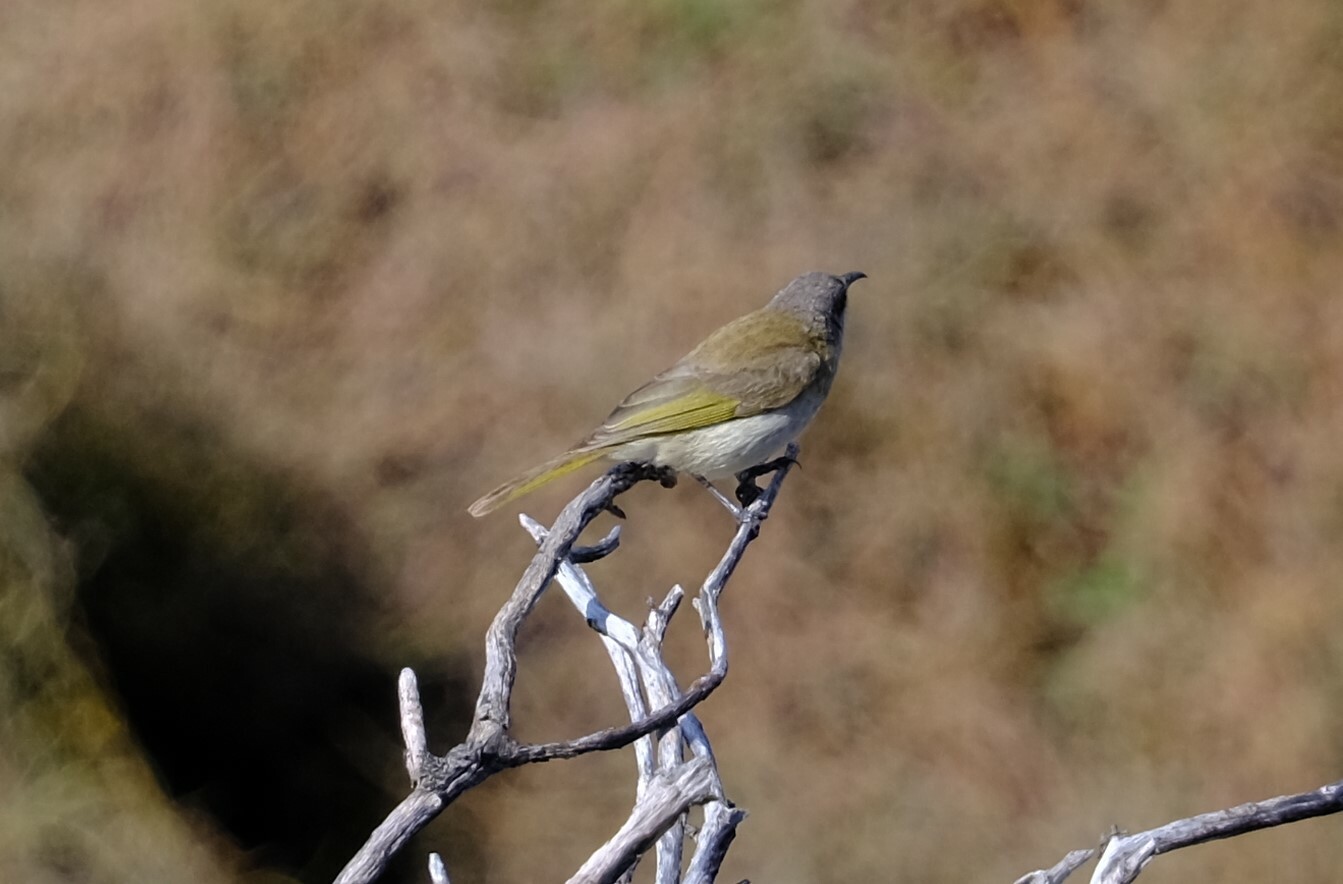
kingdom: Animalia
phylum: Chordata
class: Aves
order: Passeriformes
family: Meliphagidae
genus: Lichmera
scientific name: Lichmera indistincta
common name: Brown honeyeater
